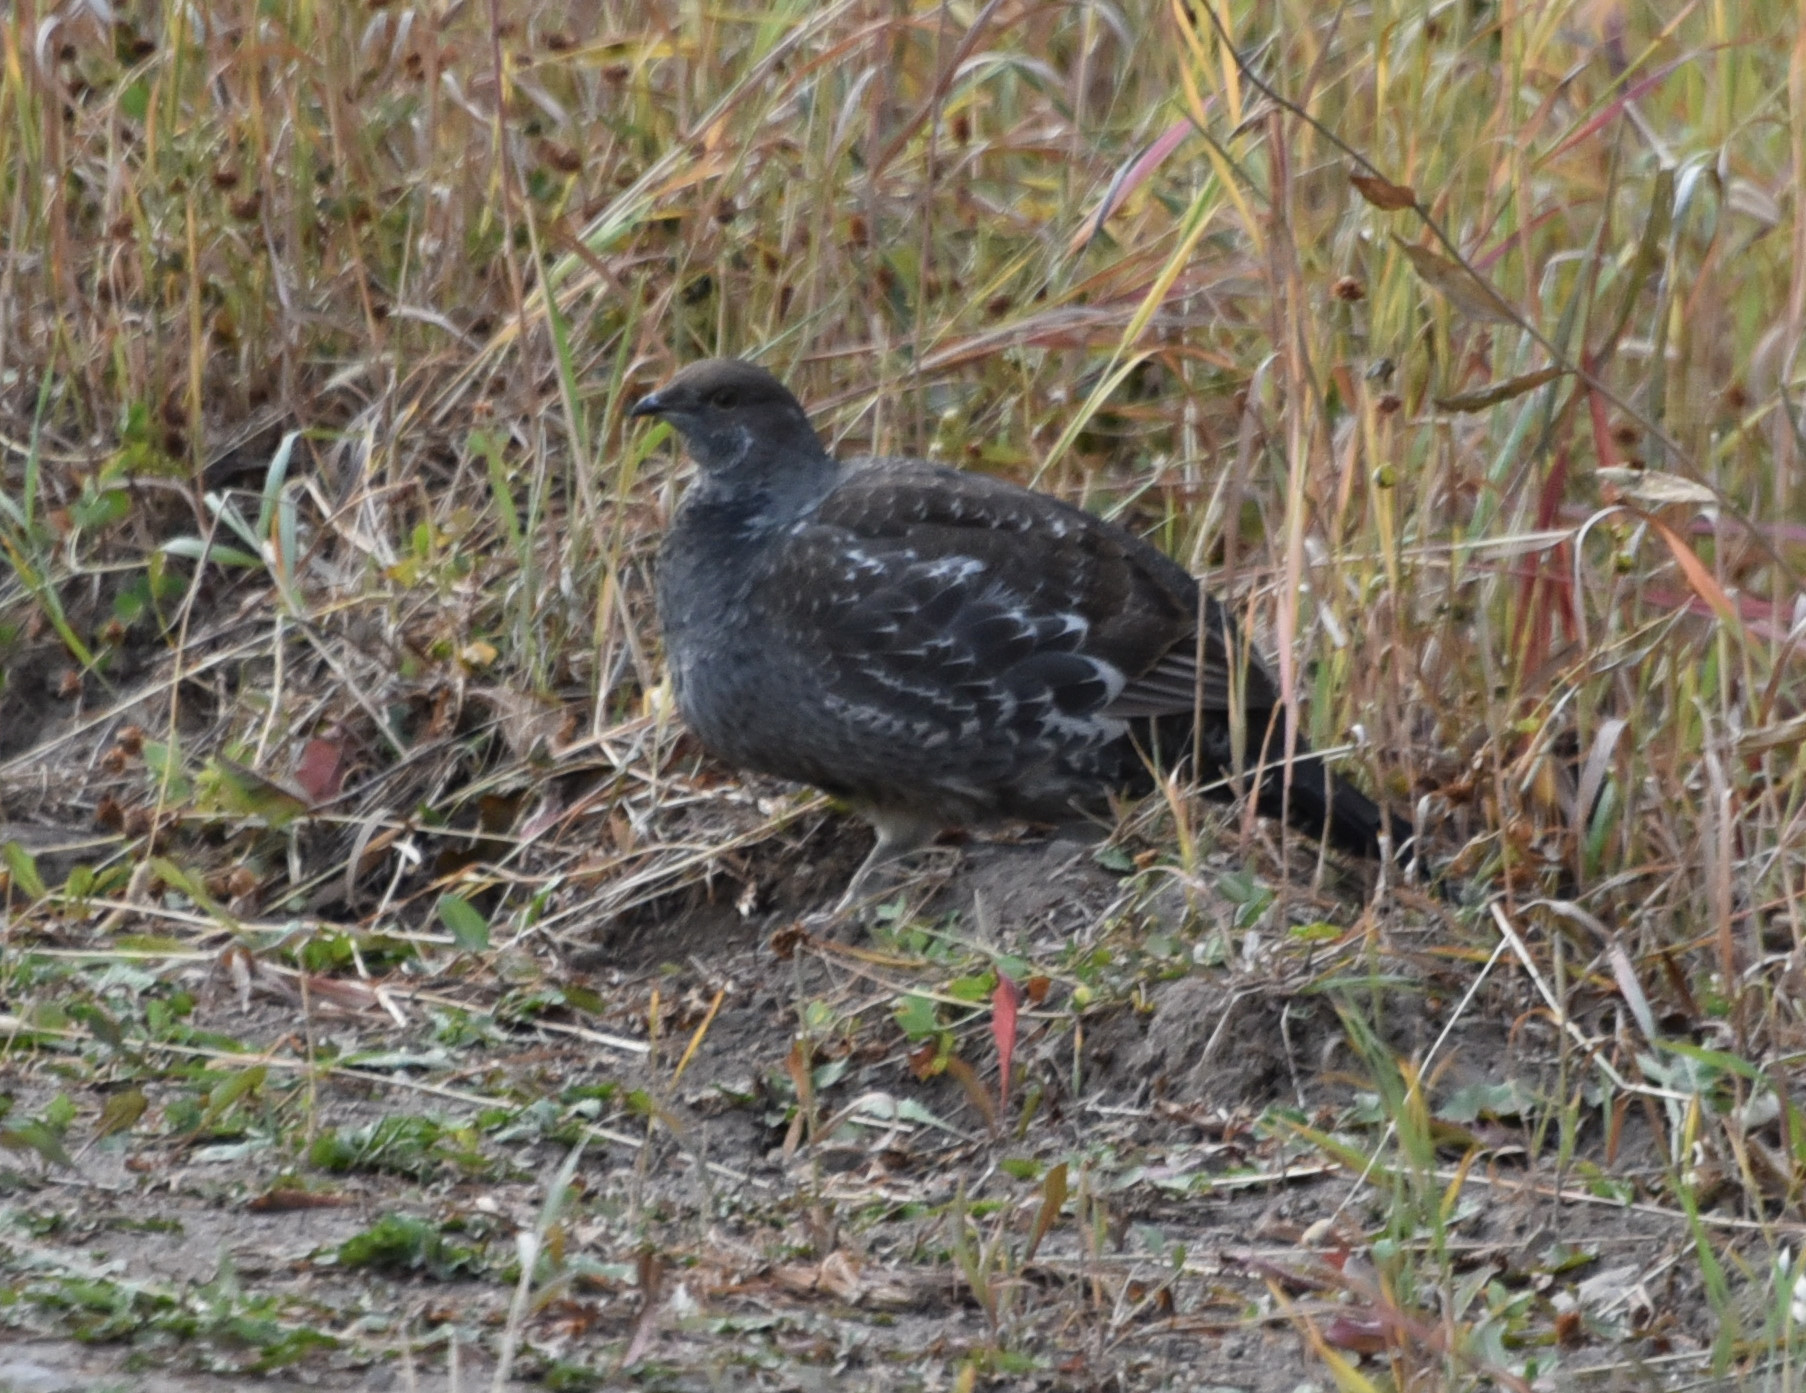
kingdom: Animalia
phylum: Chordata
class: Aves
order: Galliformes
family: Phasianidae
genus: Dendragapus
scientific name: Dendragapus obscurus
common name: Dusky grouse
